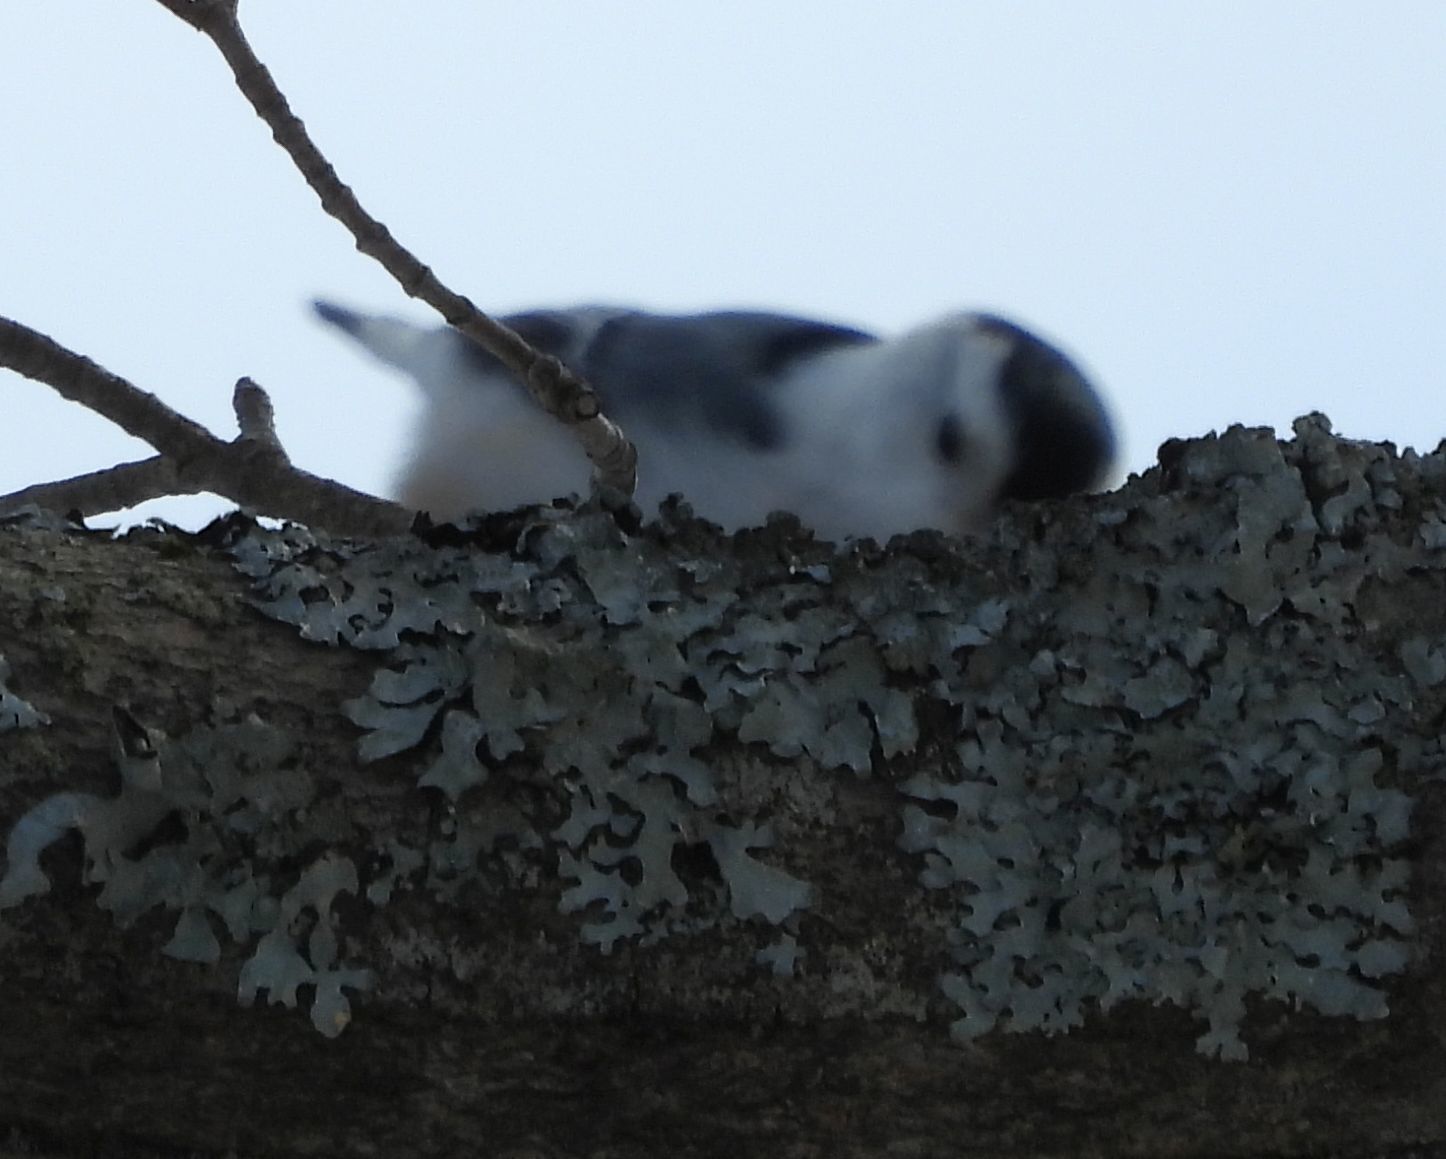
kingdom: Animalia
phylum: Chordata
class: Aves
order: Passeriformes
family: Sittidae
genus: Sitta
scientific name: Sitta carolinensis
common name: White-breasted nuthatch
